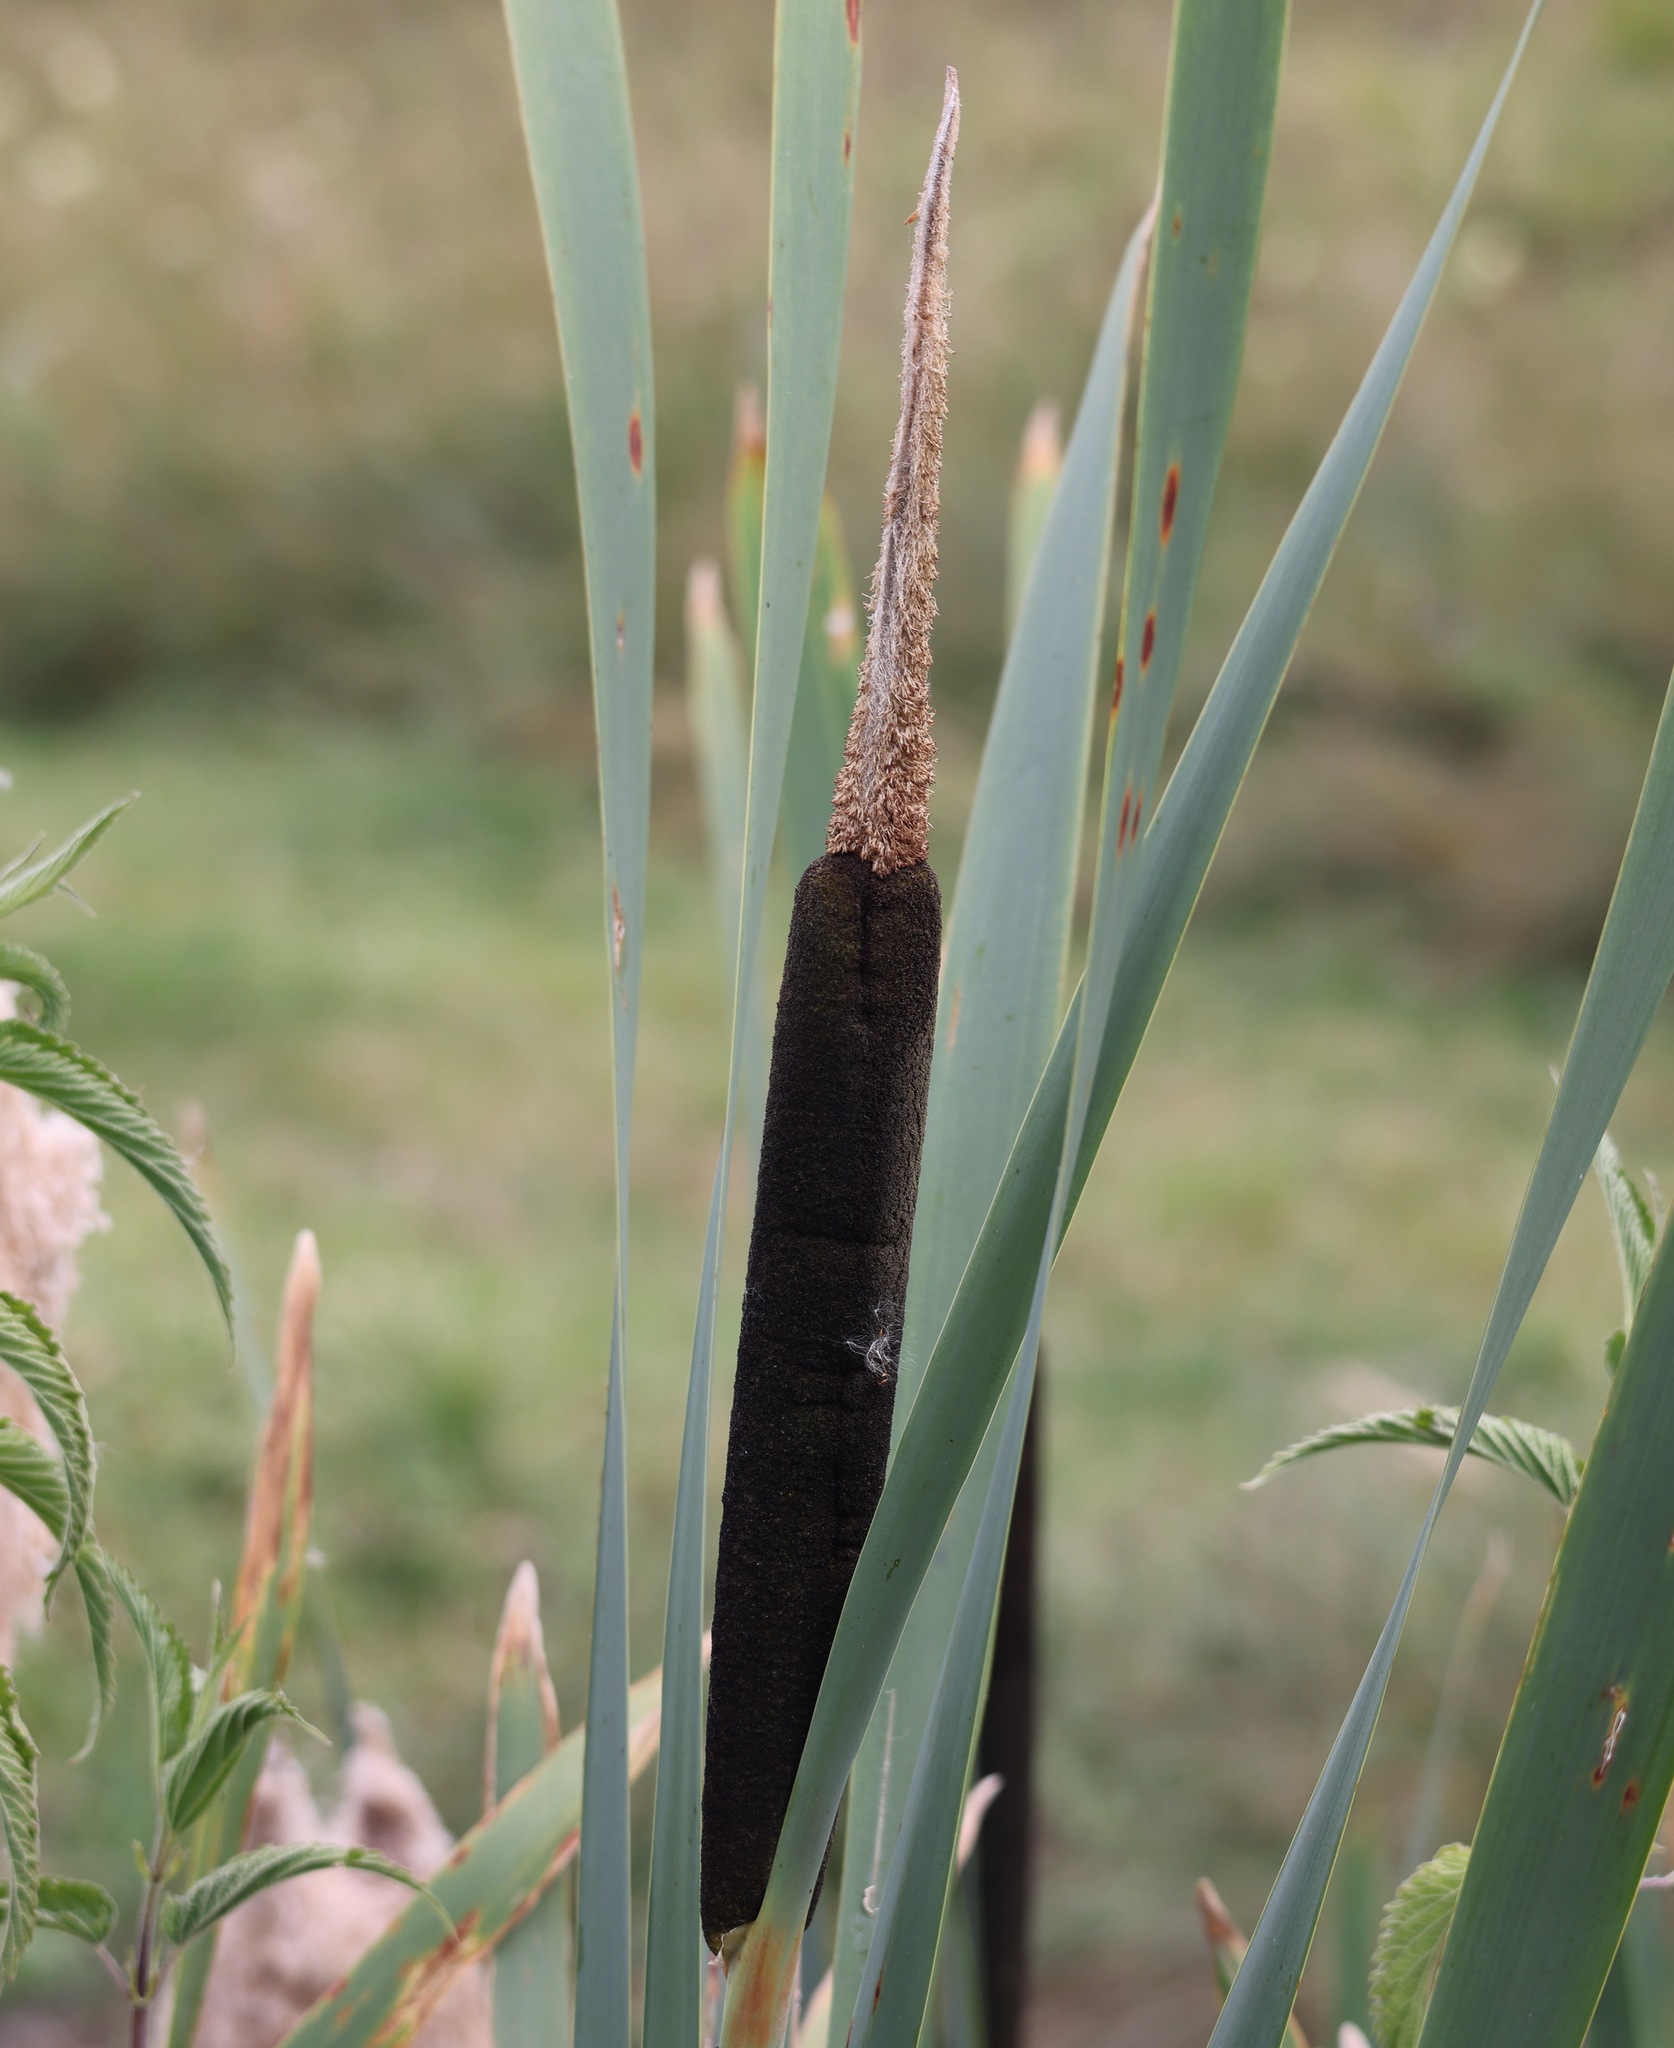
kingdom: Plantae
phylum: Tracheophyta
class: Liliopsida
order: Poales
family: Typhaceae
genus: Typha
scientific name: Typha latifolia
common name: Broadleaf cattail
